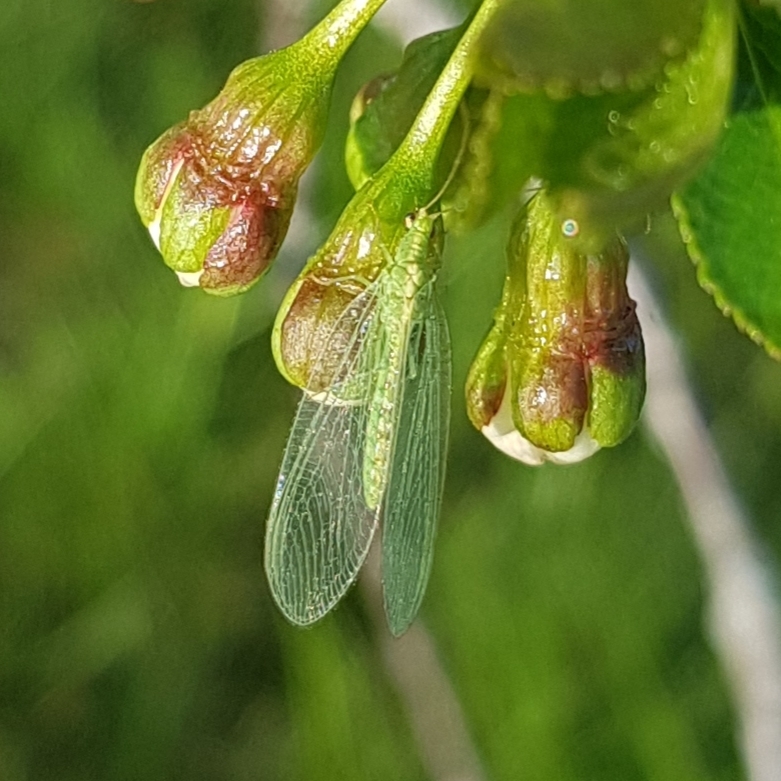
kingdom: Animalia
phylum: Arthropoda
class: Insecta
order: Neuroptera
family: Chrysopidae
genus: Chrysoperla
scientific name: Chrysoperla
